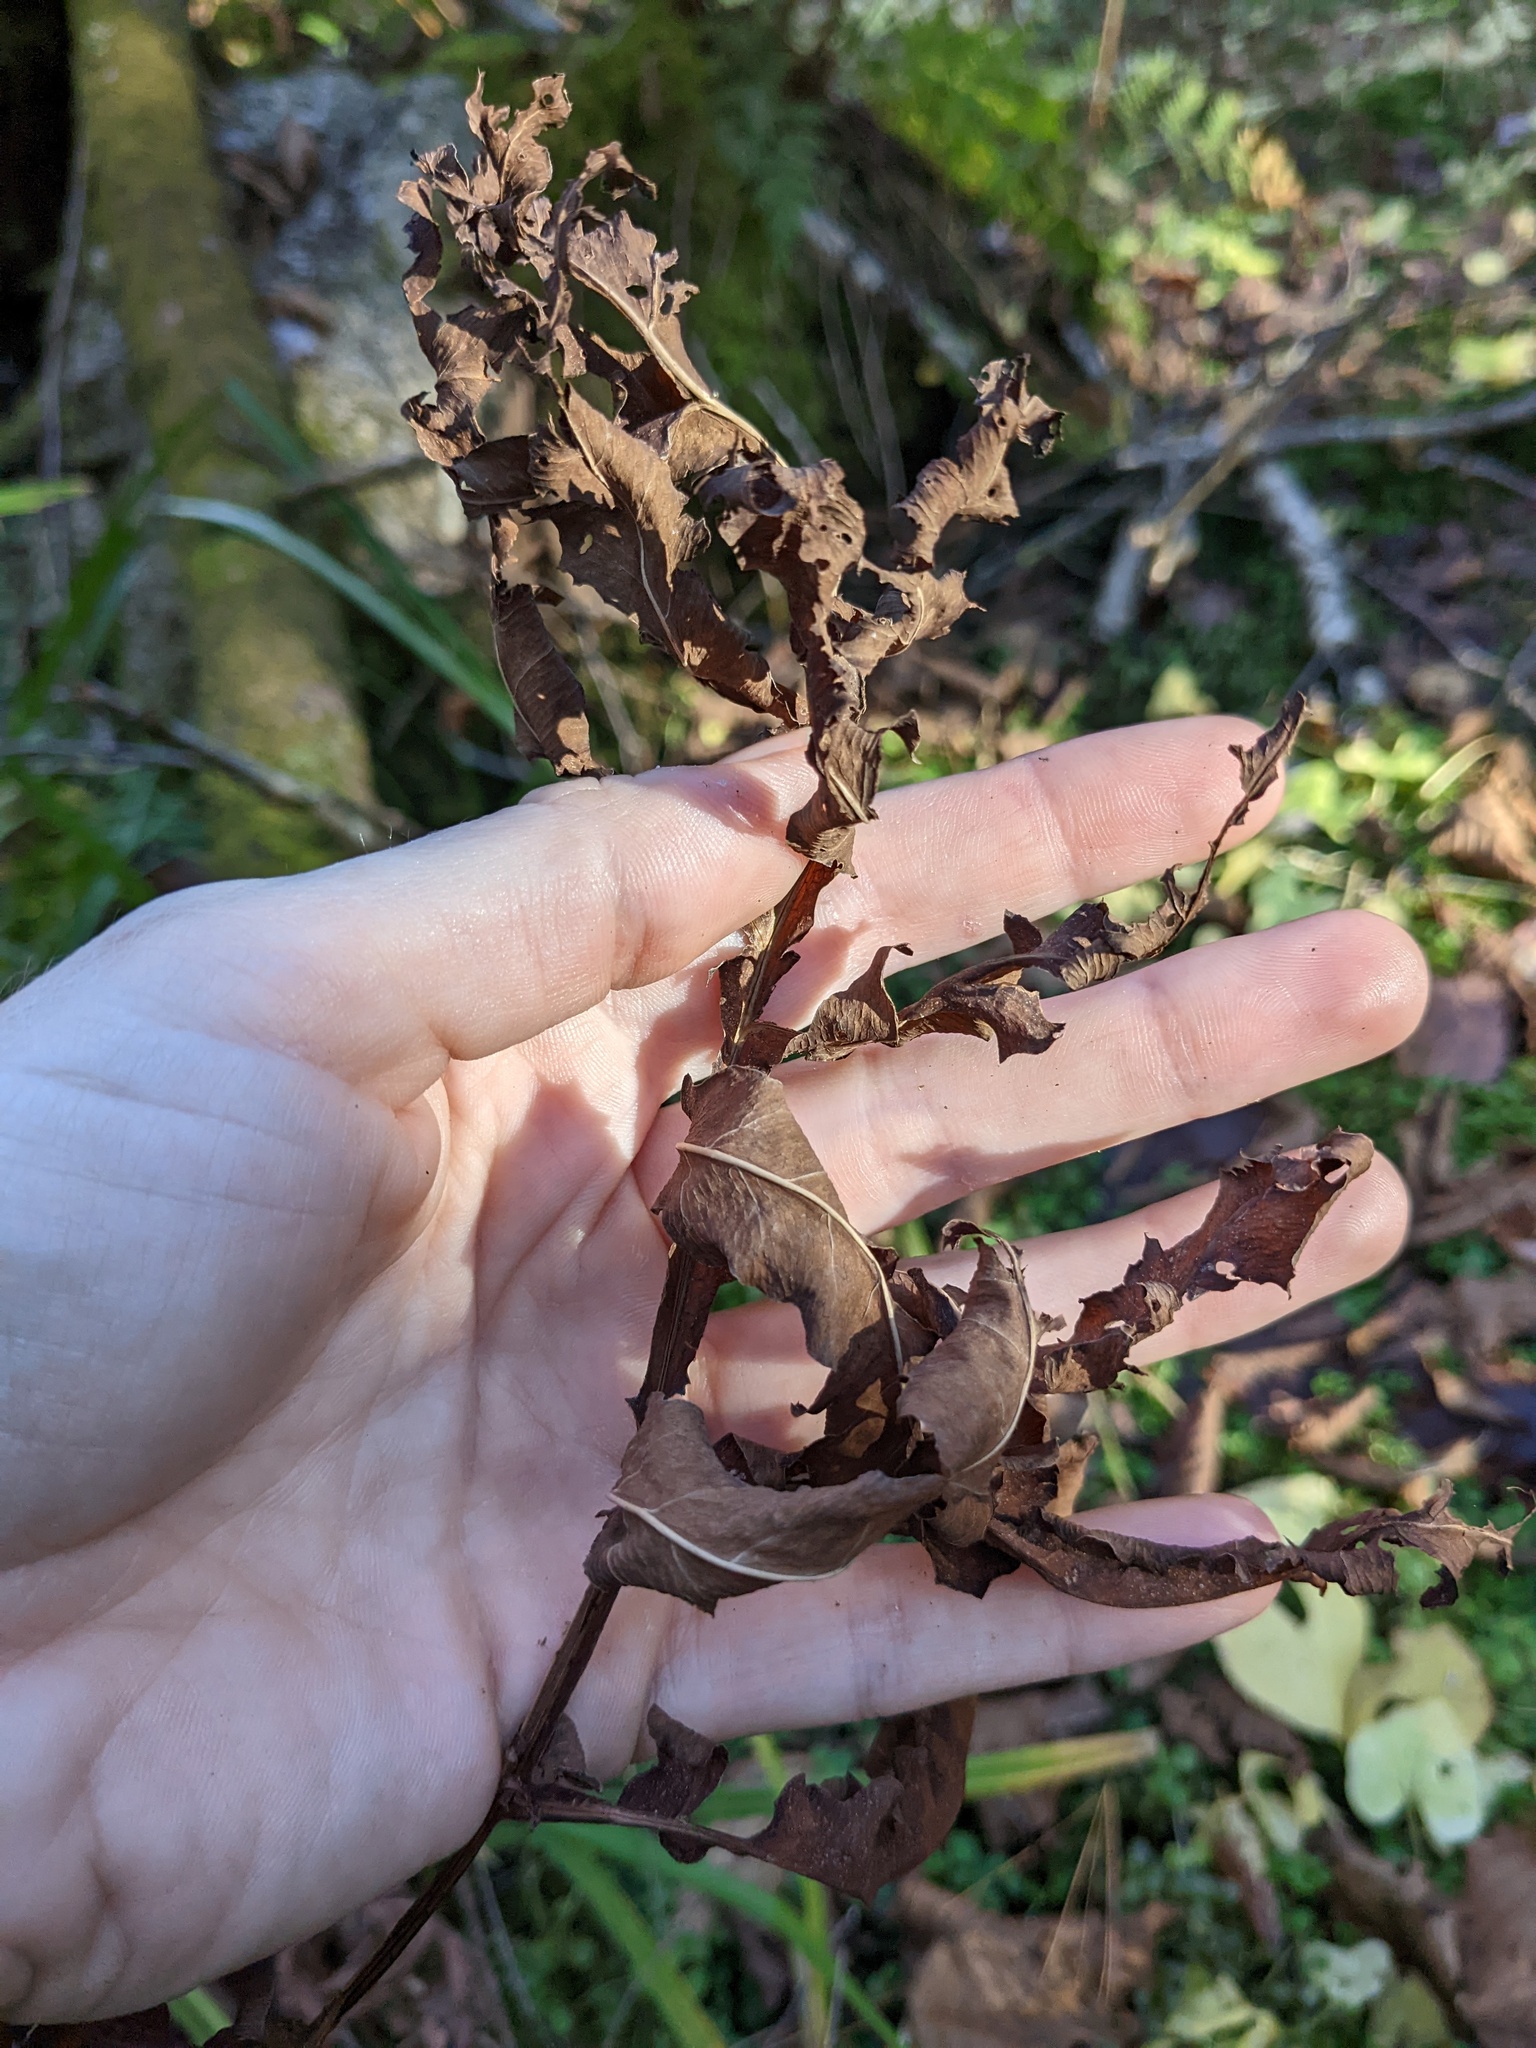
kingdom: Plantae
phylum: Tracheophyta
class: Polypodiopsida
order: Polypodiales
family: Onocleaceae
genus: Onoclea
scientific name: Onoclea sensibilis
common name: Sensitive fern
